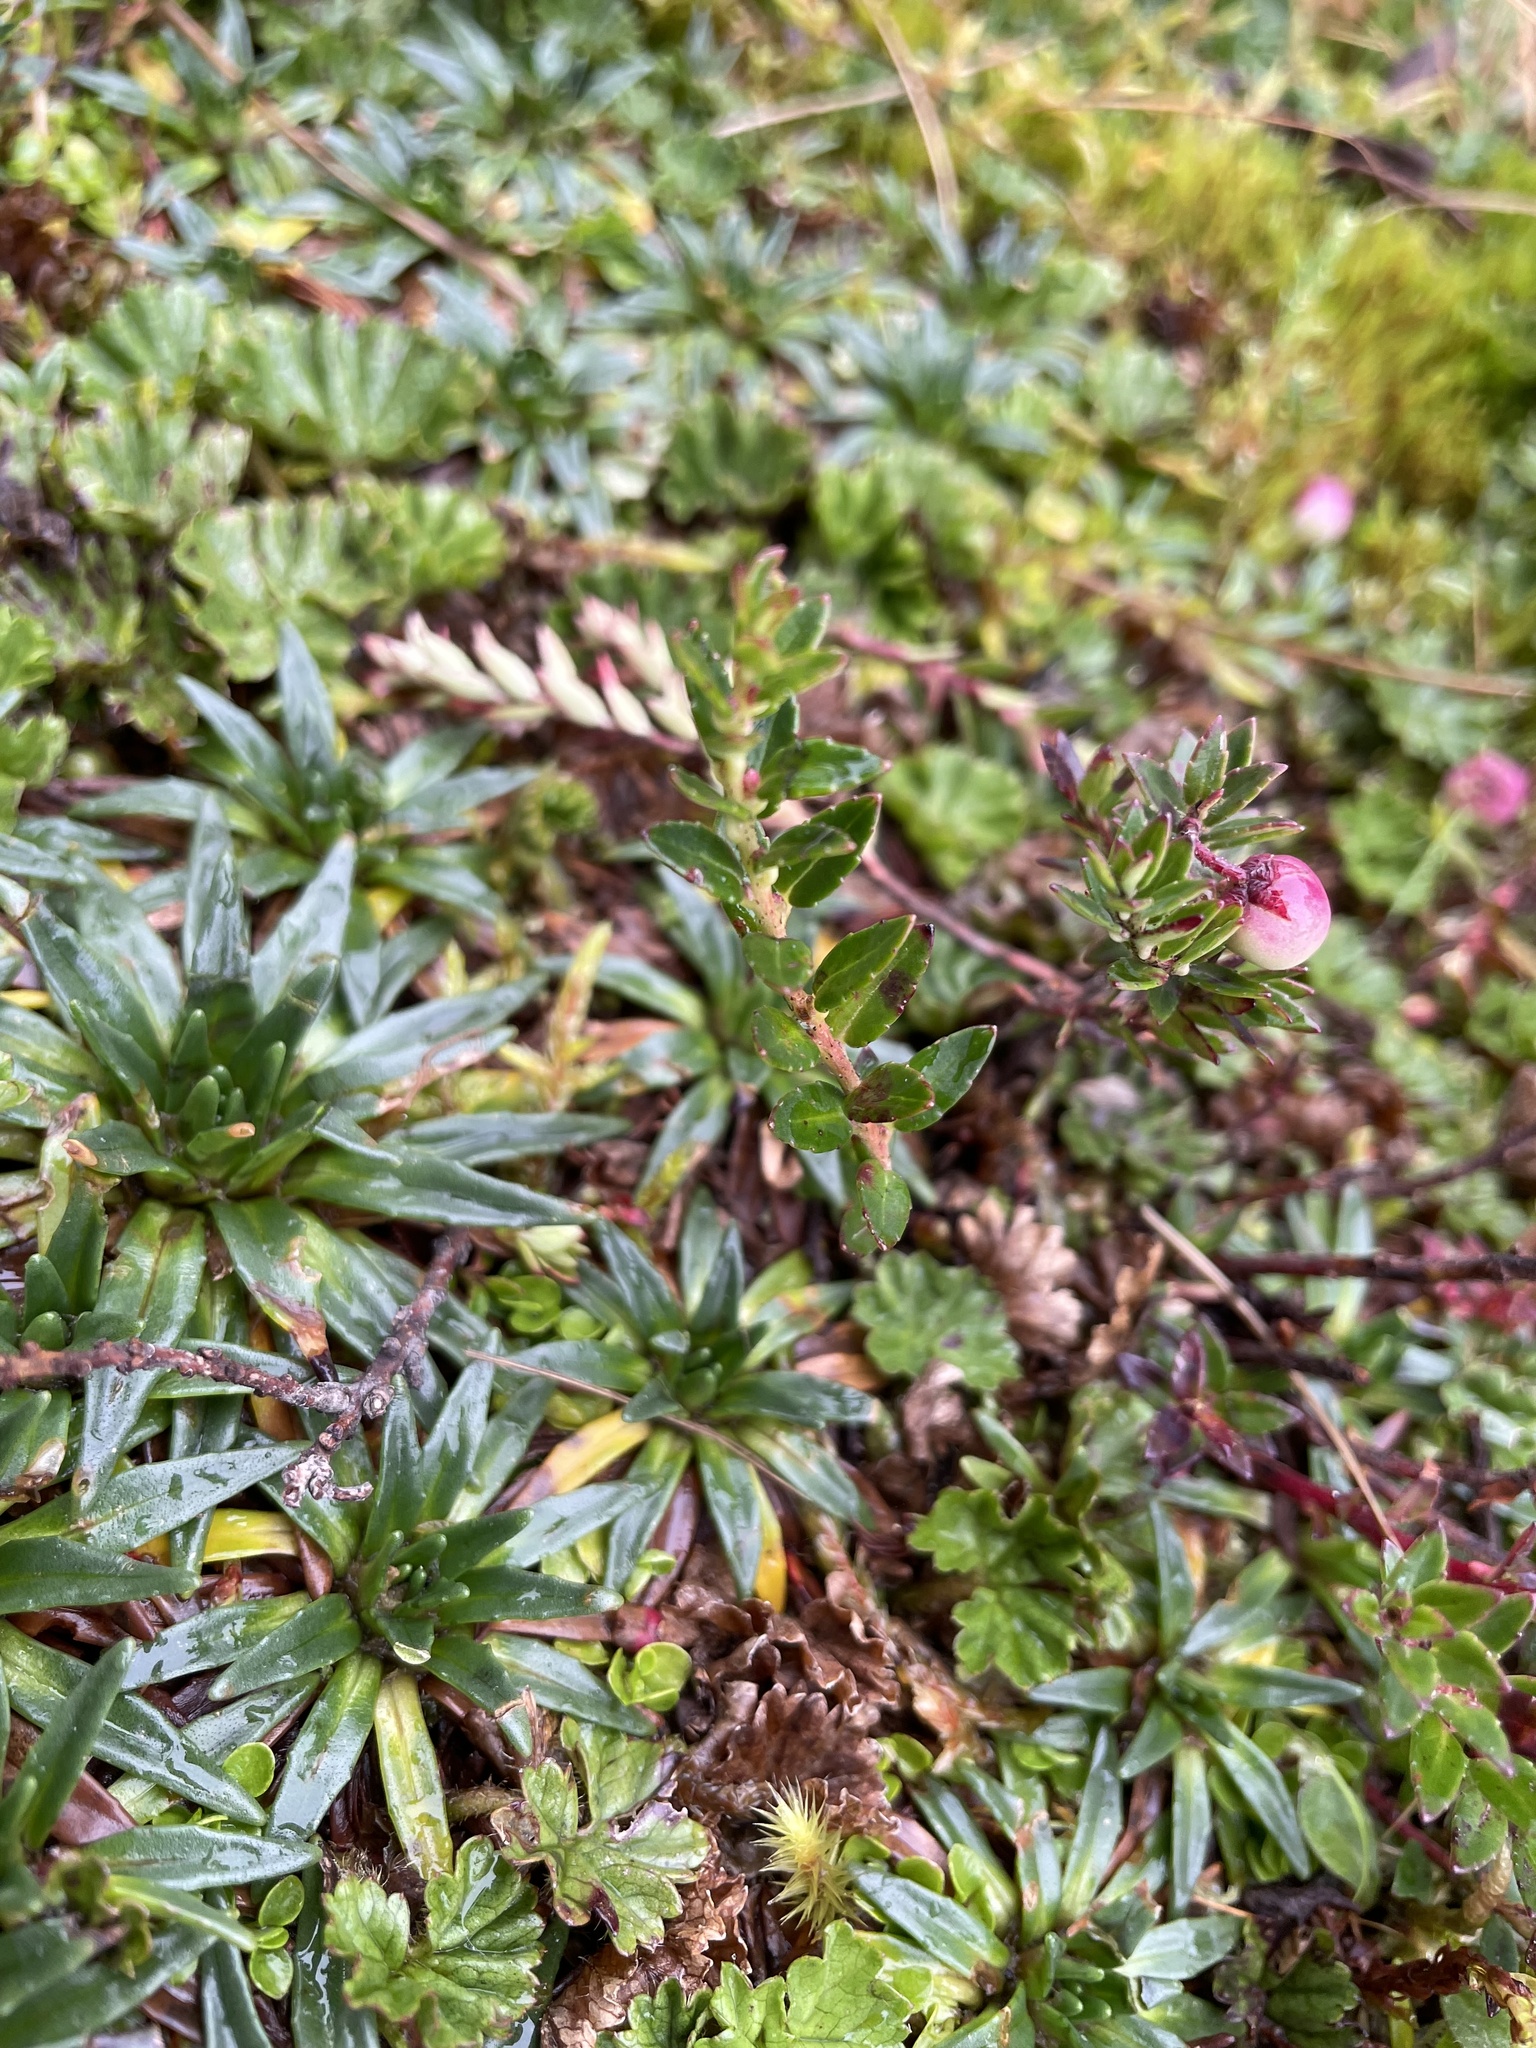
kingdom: Plantae
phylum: Tracheophyta
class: Magnoliopsida
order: Lamiales
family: Plantaginaceae
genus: Plantago
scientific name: Plantago rigida
